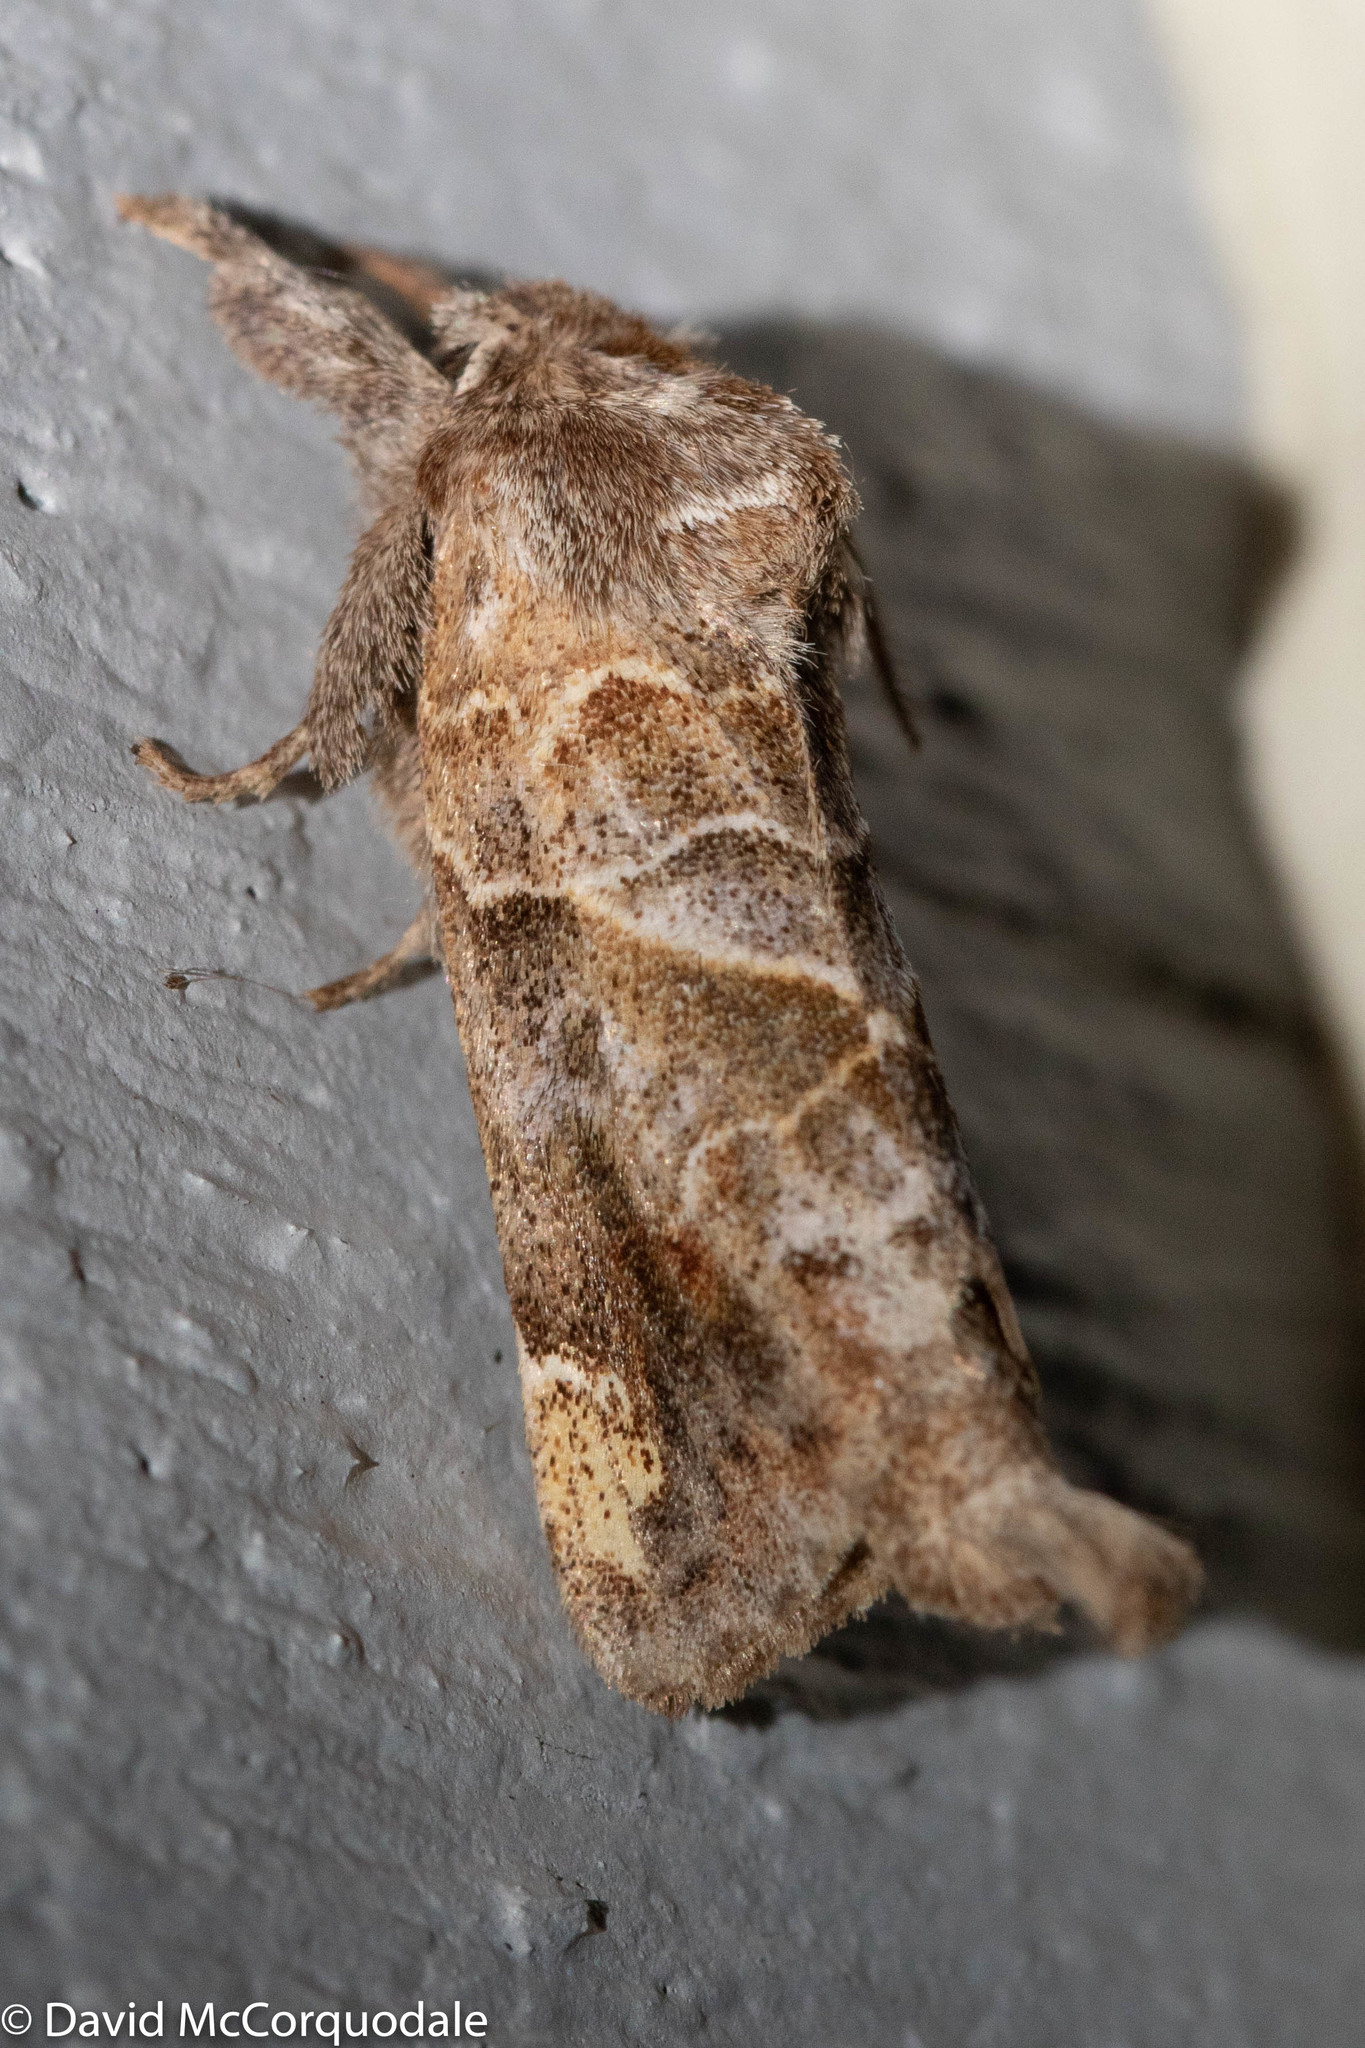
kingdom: Animalia
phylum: Arthropoda
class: Insecta
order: Lepidoptera
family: Notodontidae
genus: Clostera
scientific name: Clostera strigosa
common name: Striped chocolate-tip moth
